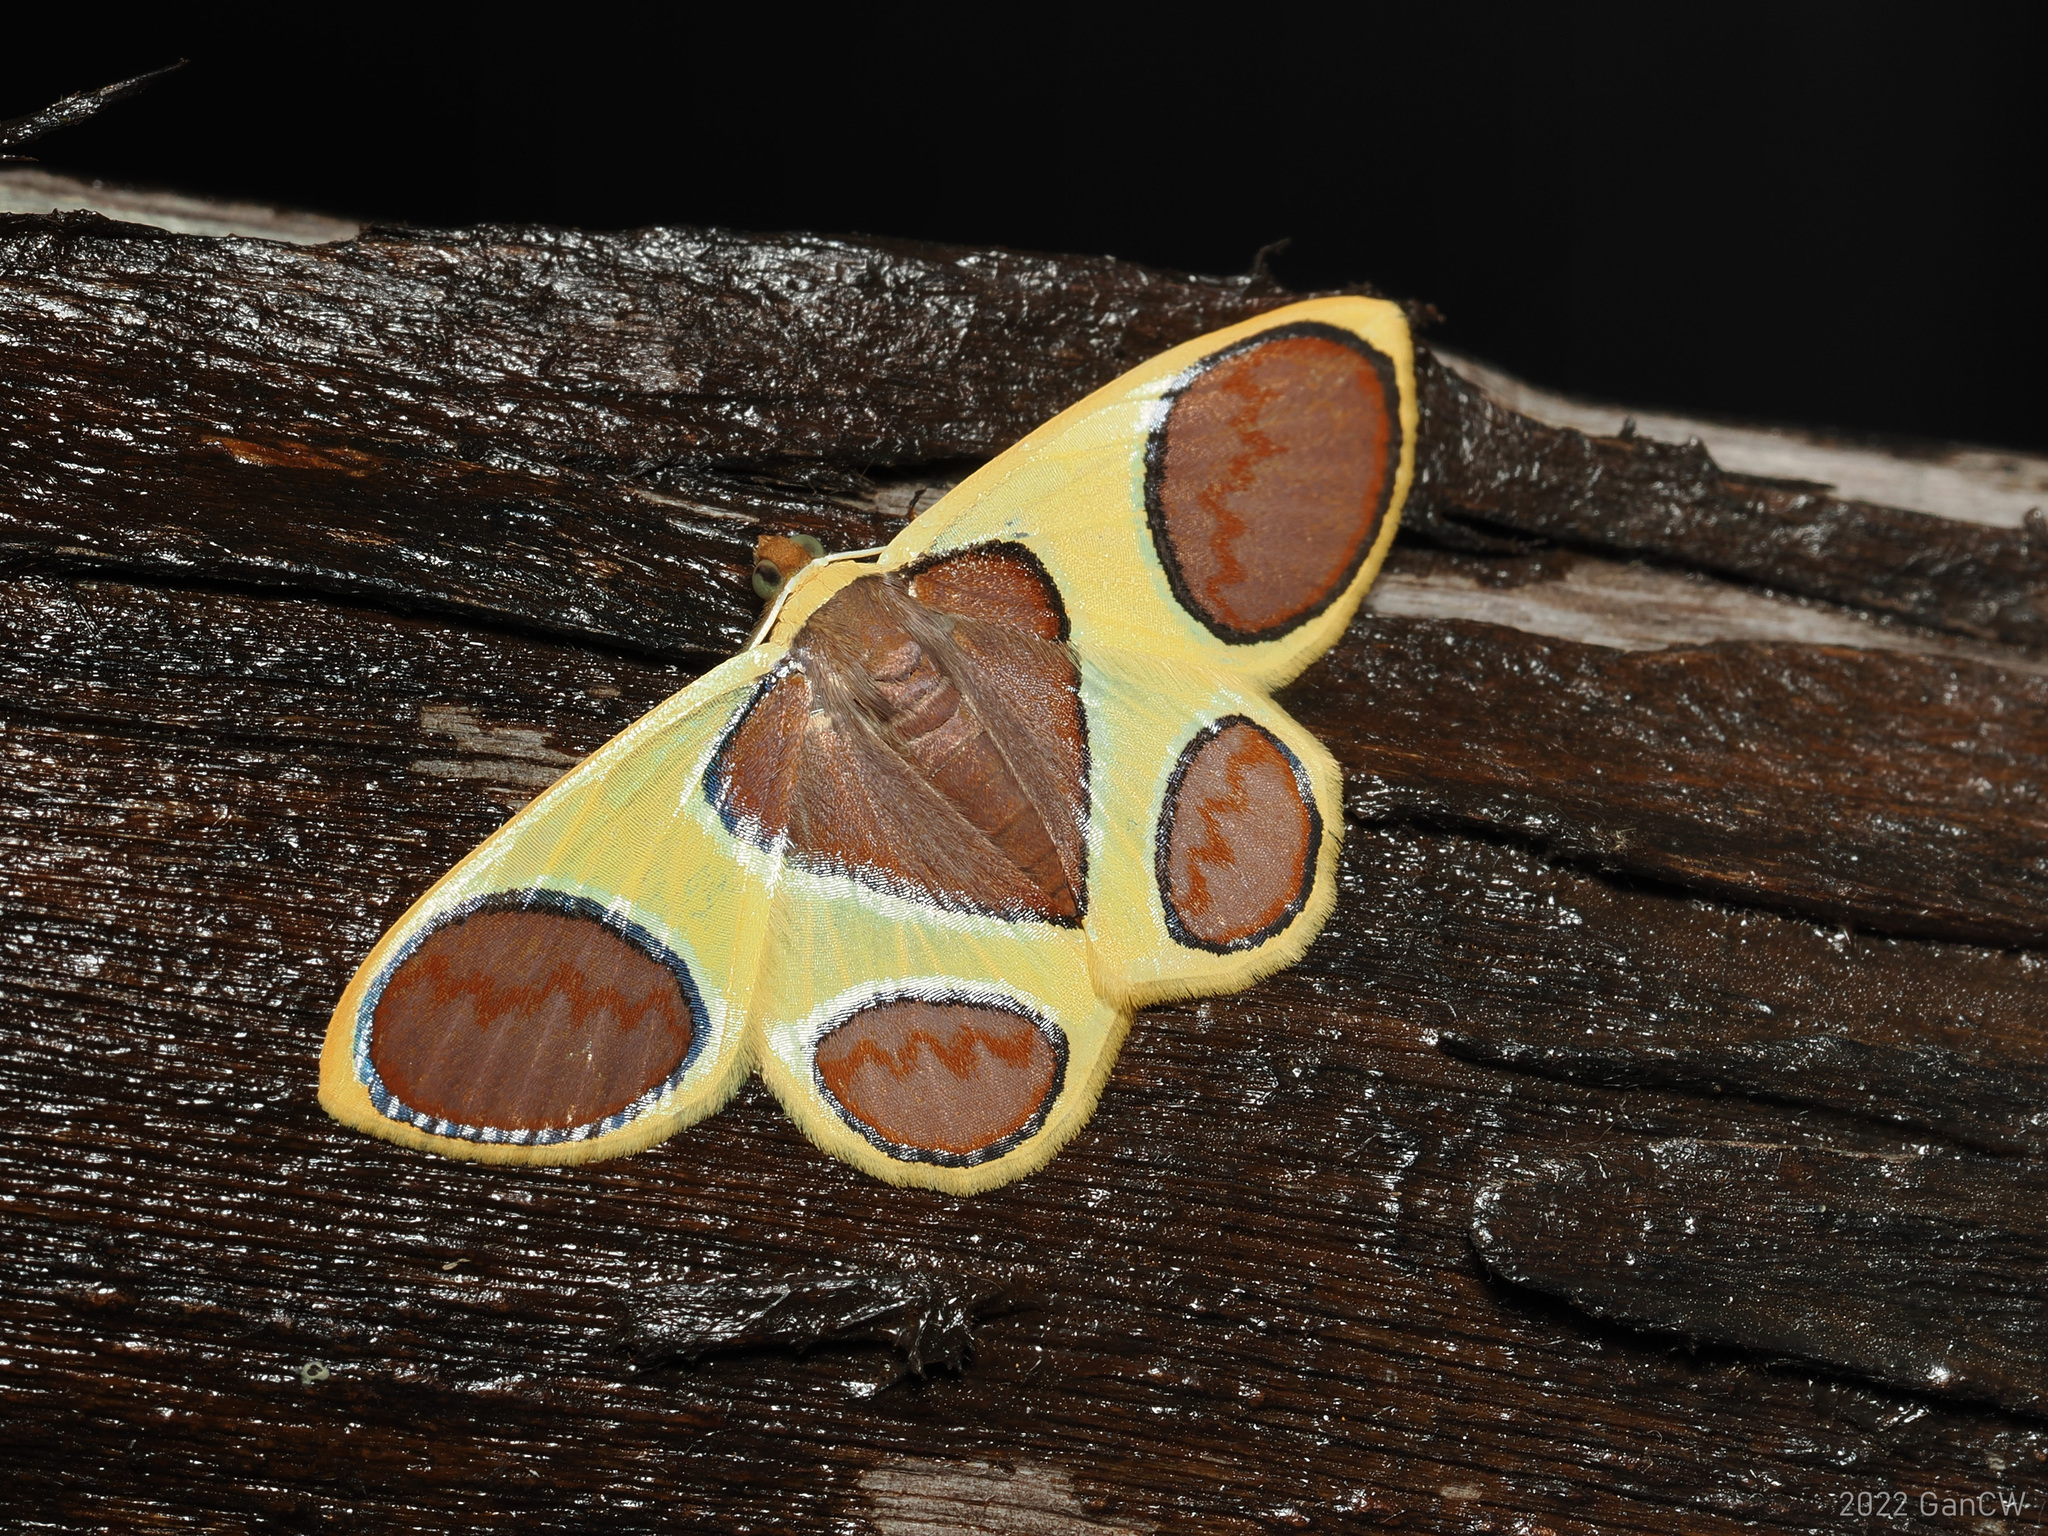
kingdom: Animalia
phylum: Arthropoda
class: Insecta
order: Lepidoptera
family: Geometridae
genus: Plutodes
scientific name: Plutodes argentilauta
